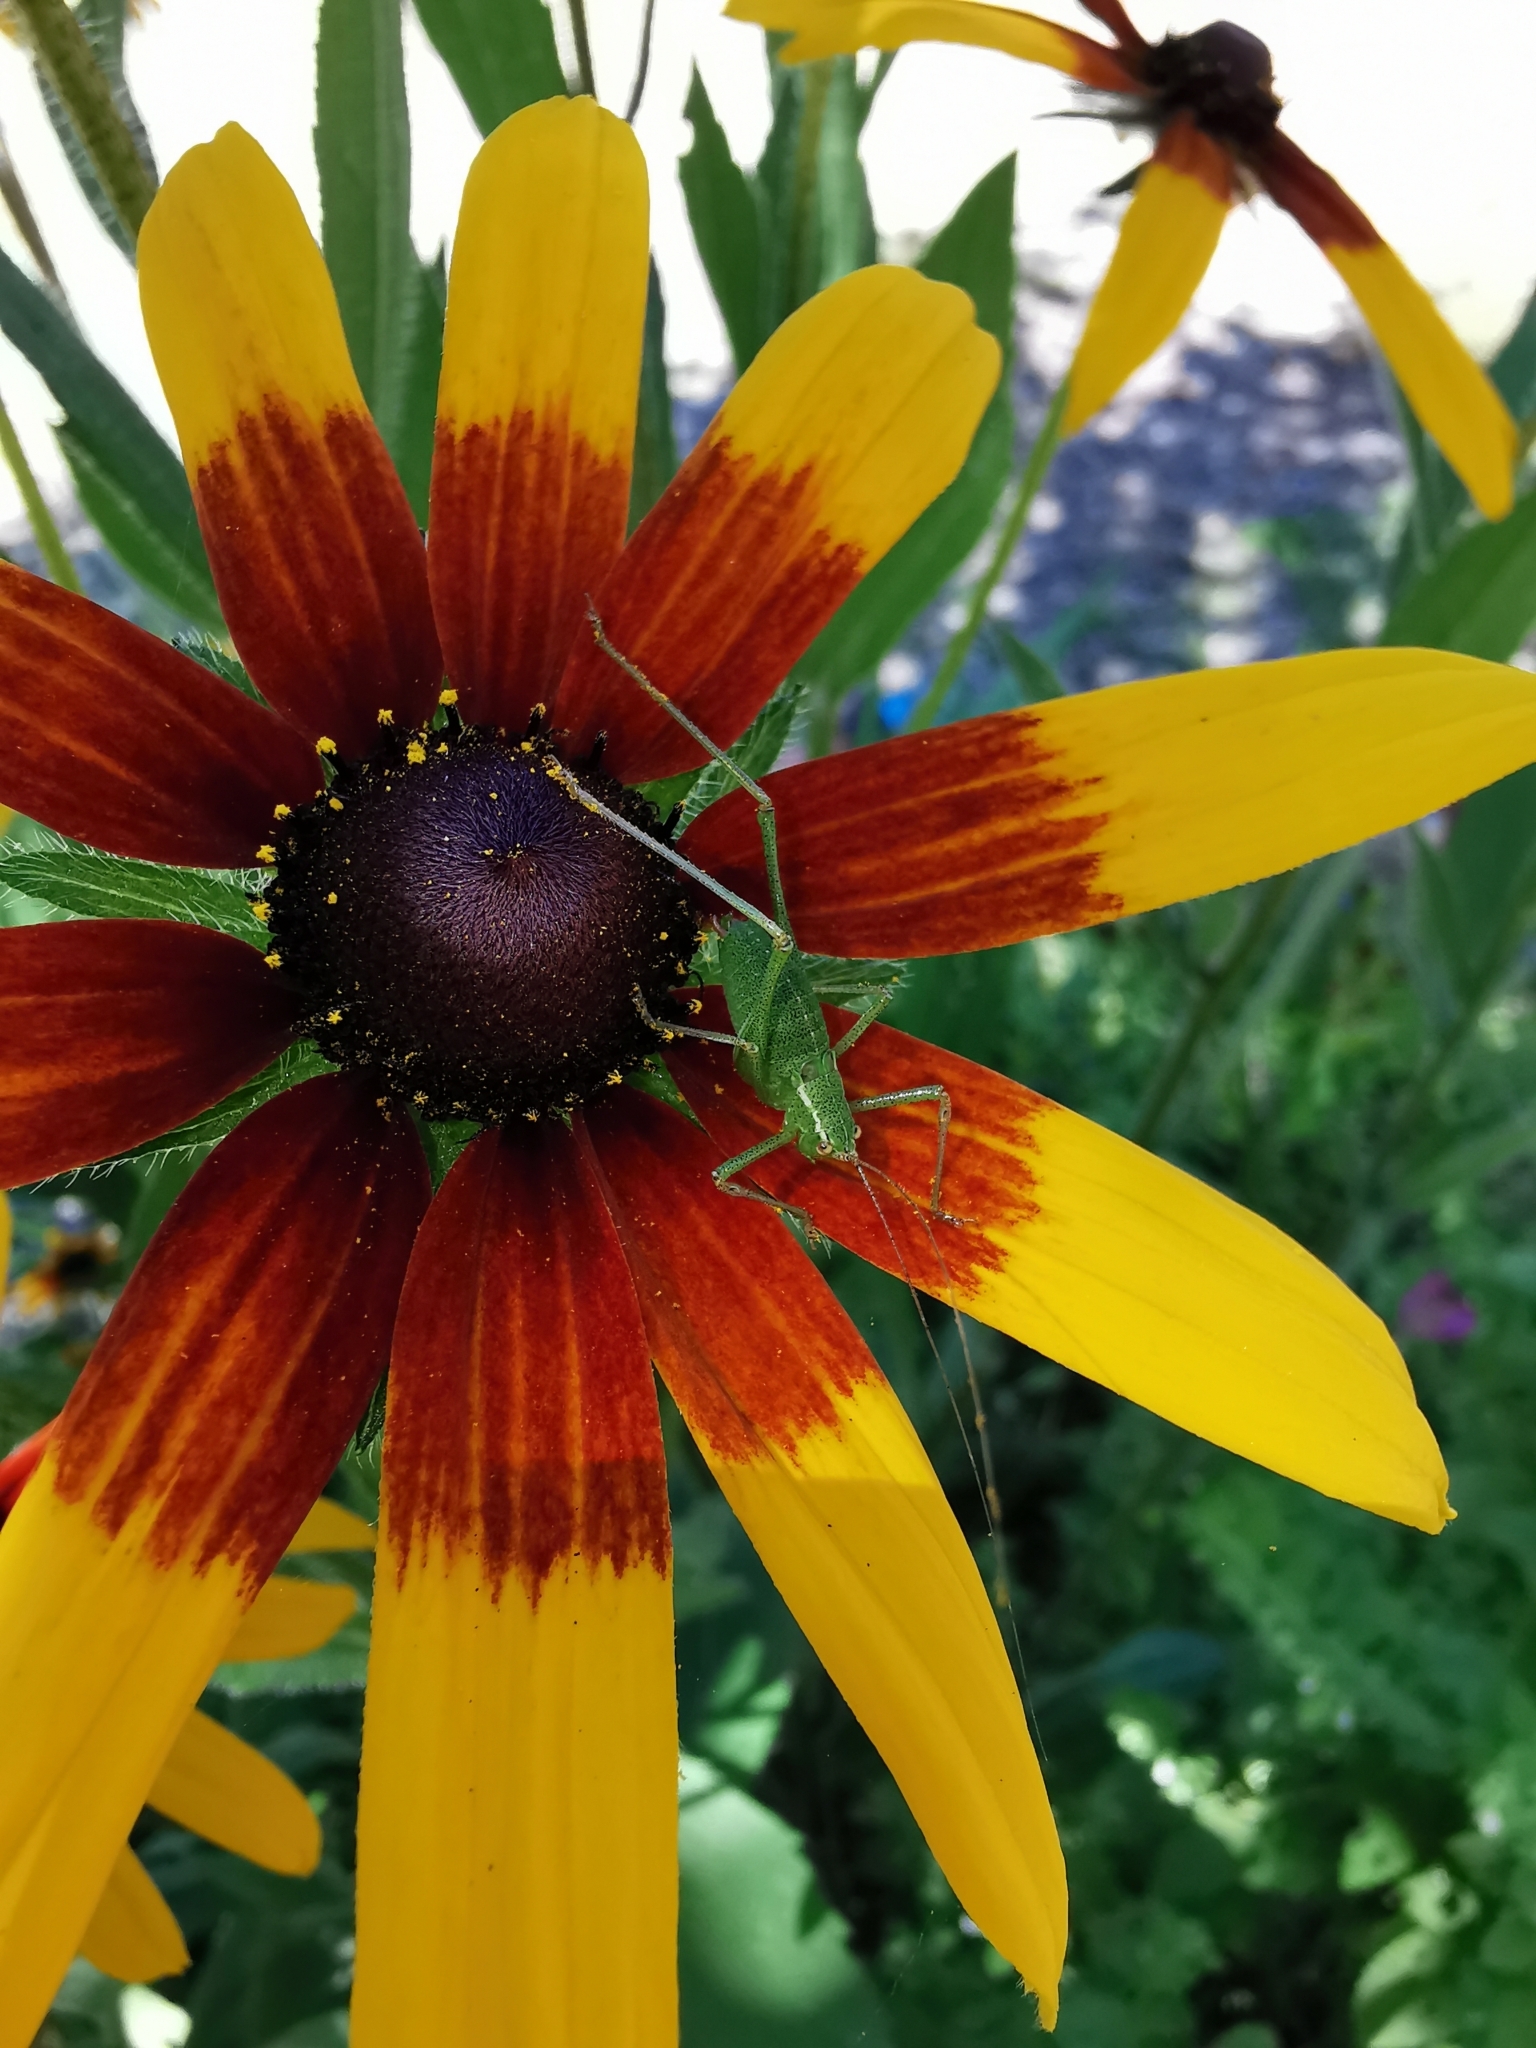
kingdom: Animalia
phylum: Arthropoda
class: Insecta
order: Orthoptera
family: Tettigoniidae
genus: Leptophyes
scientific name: Leptophyes punctatissima
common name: Speckled bush-cricket
